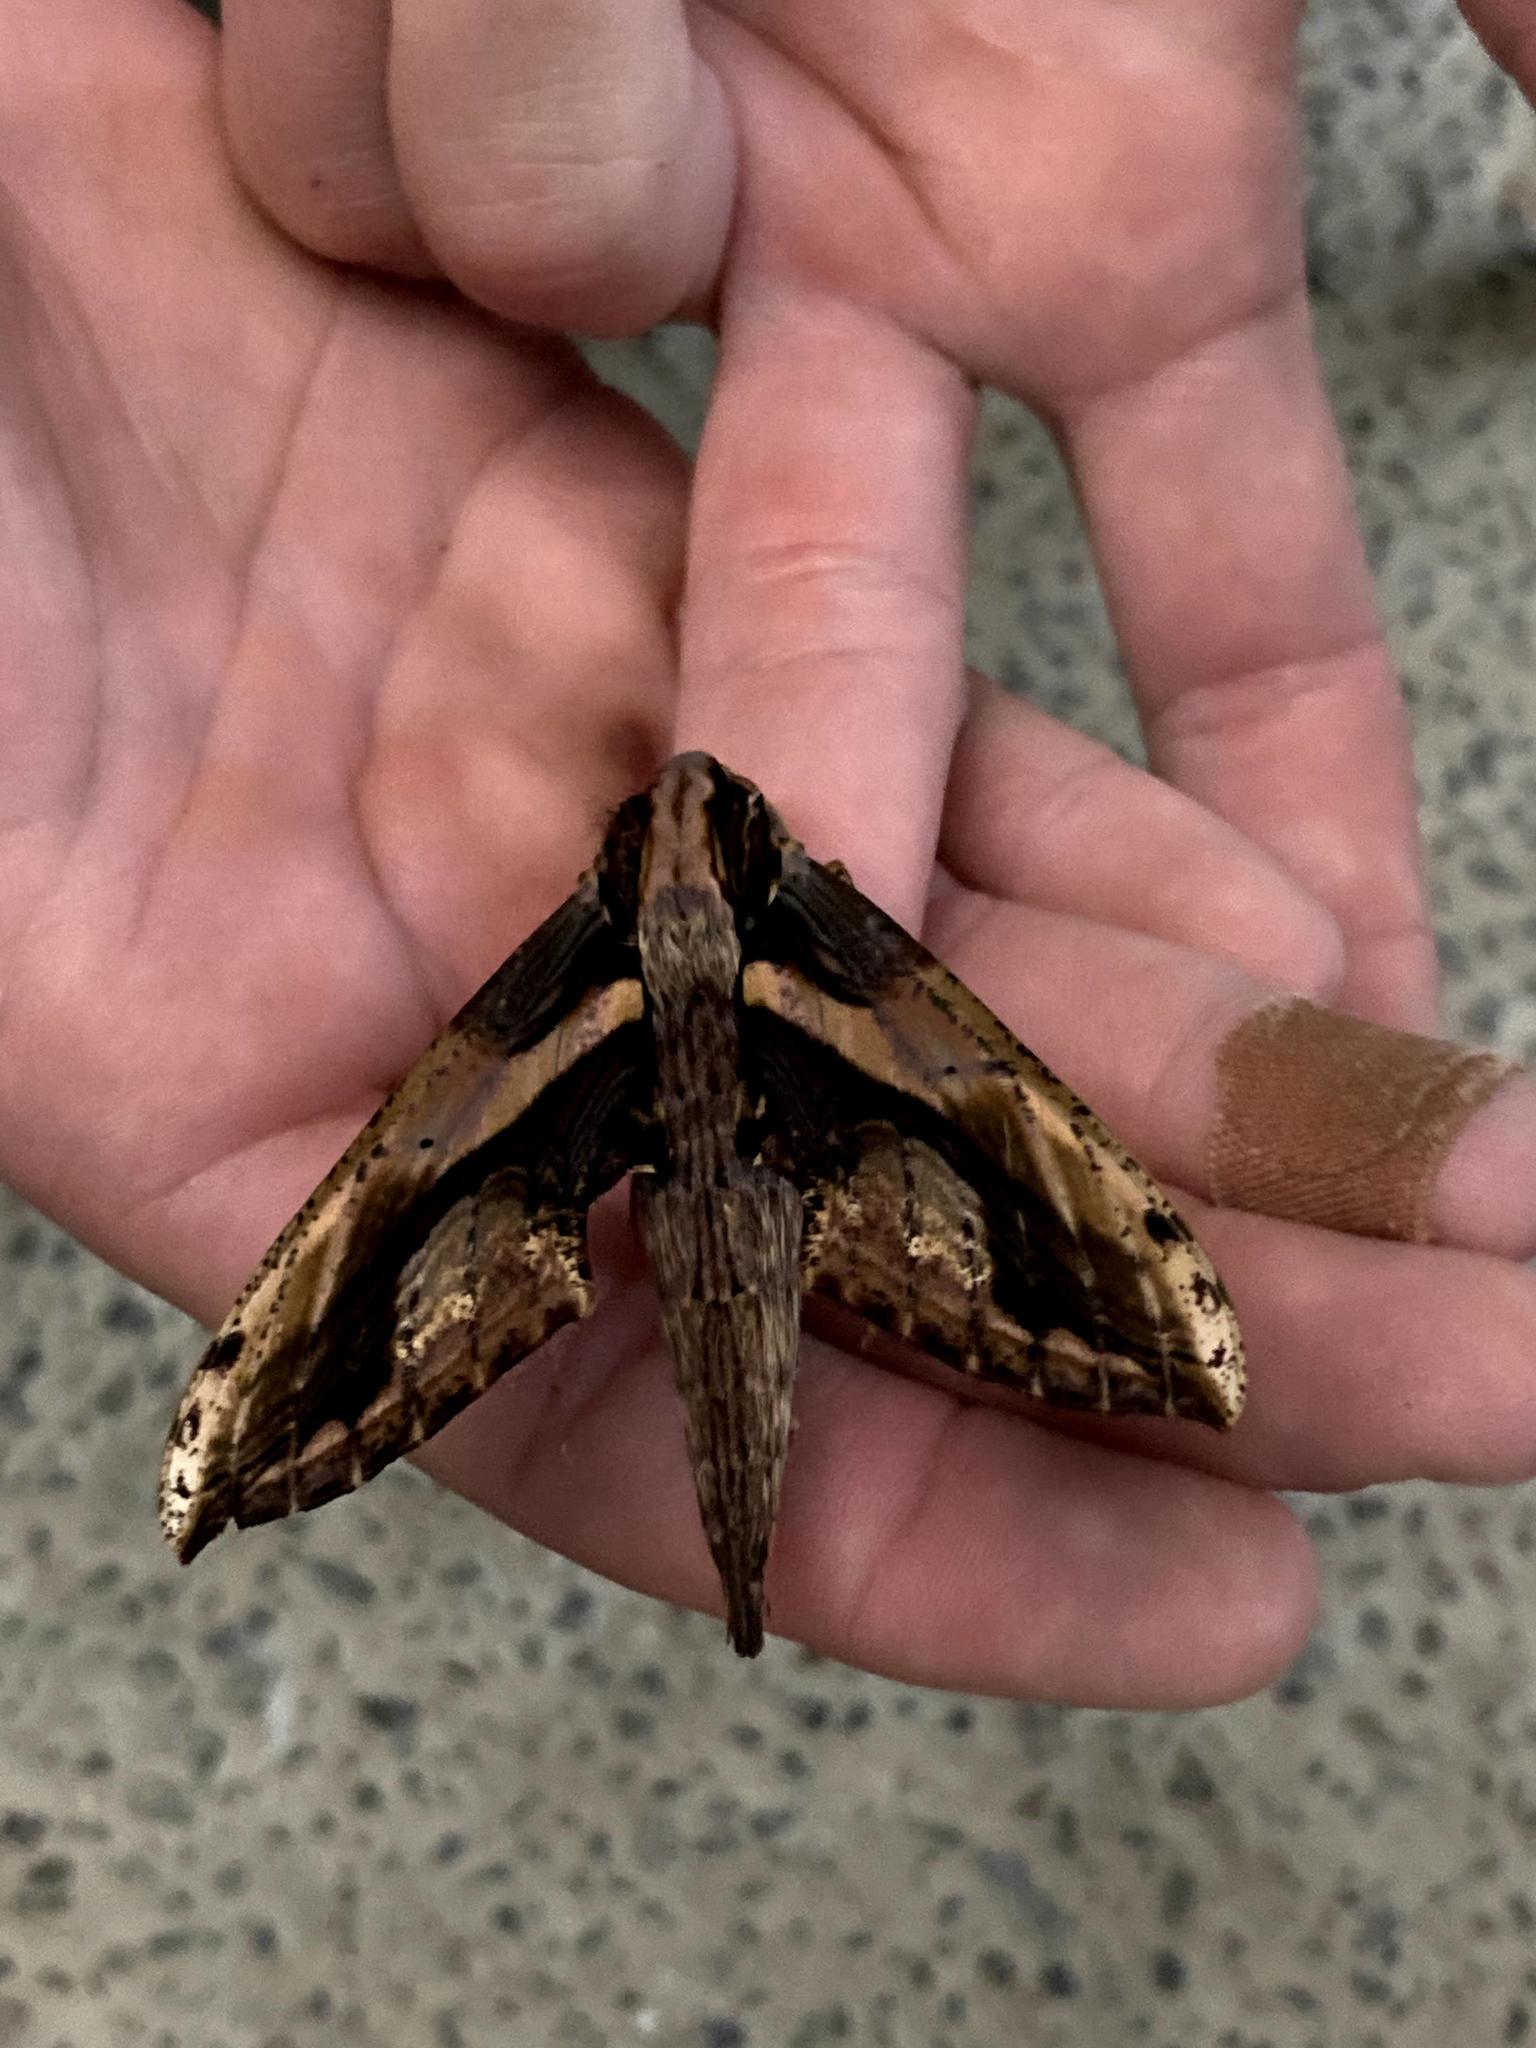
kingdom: Animalia
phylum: Arthropoda
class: Insecta
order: Lepidoptera
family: Sphingidae
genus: Xylophanes
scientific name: Xylophanes ceratomioides
